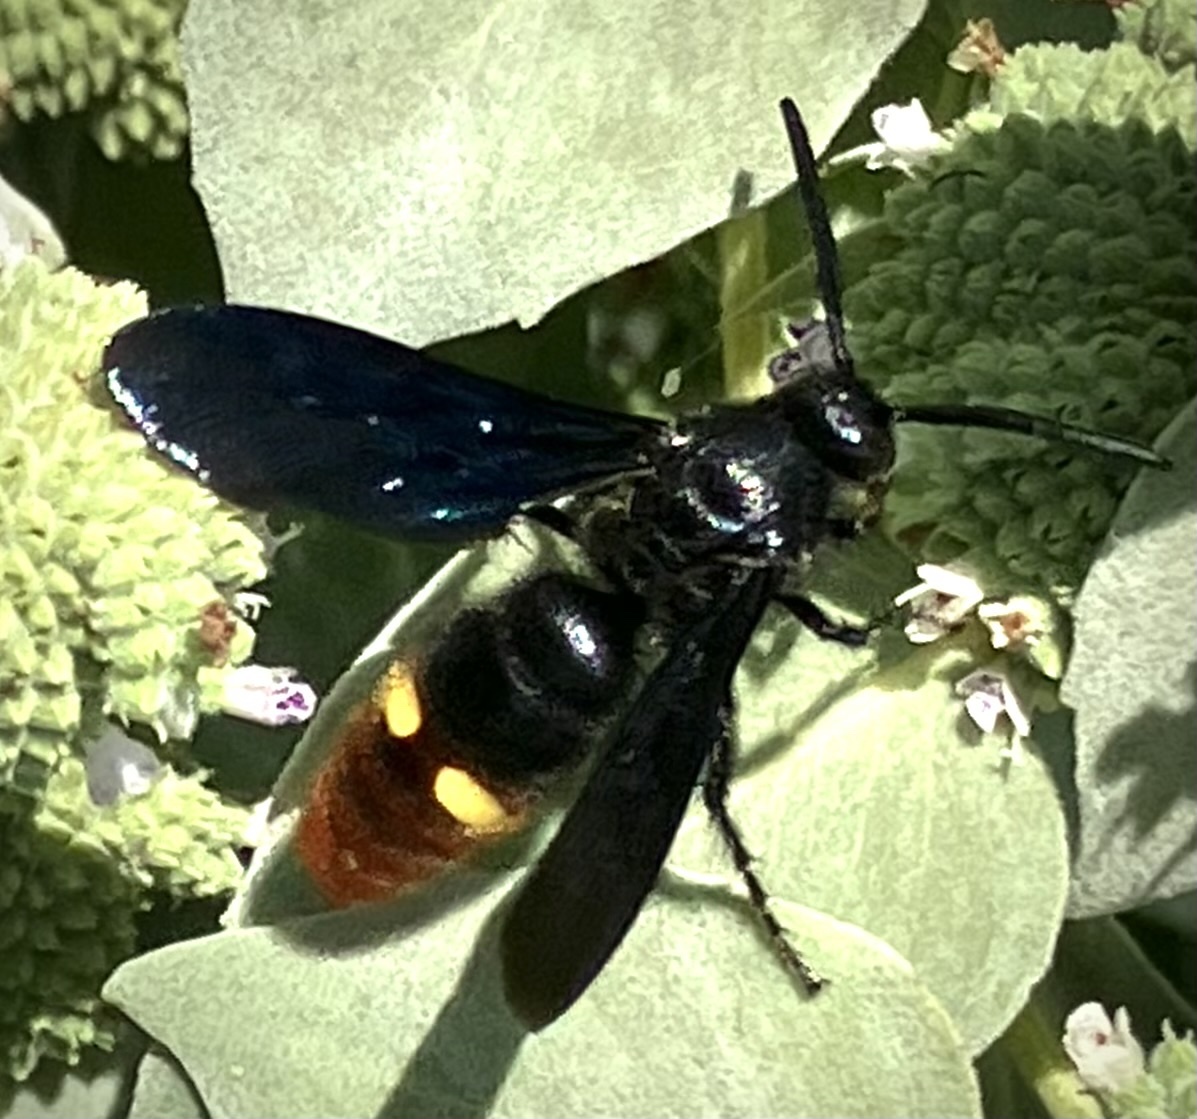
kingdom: Animalia
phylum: Arthropoda
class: Insecta
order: Hymenoptera
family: Scoliidae
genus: Scolia
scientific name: Scolia dubia
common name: Blue-winged scoliid wasp
